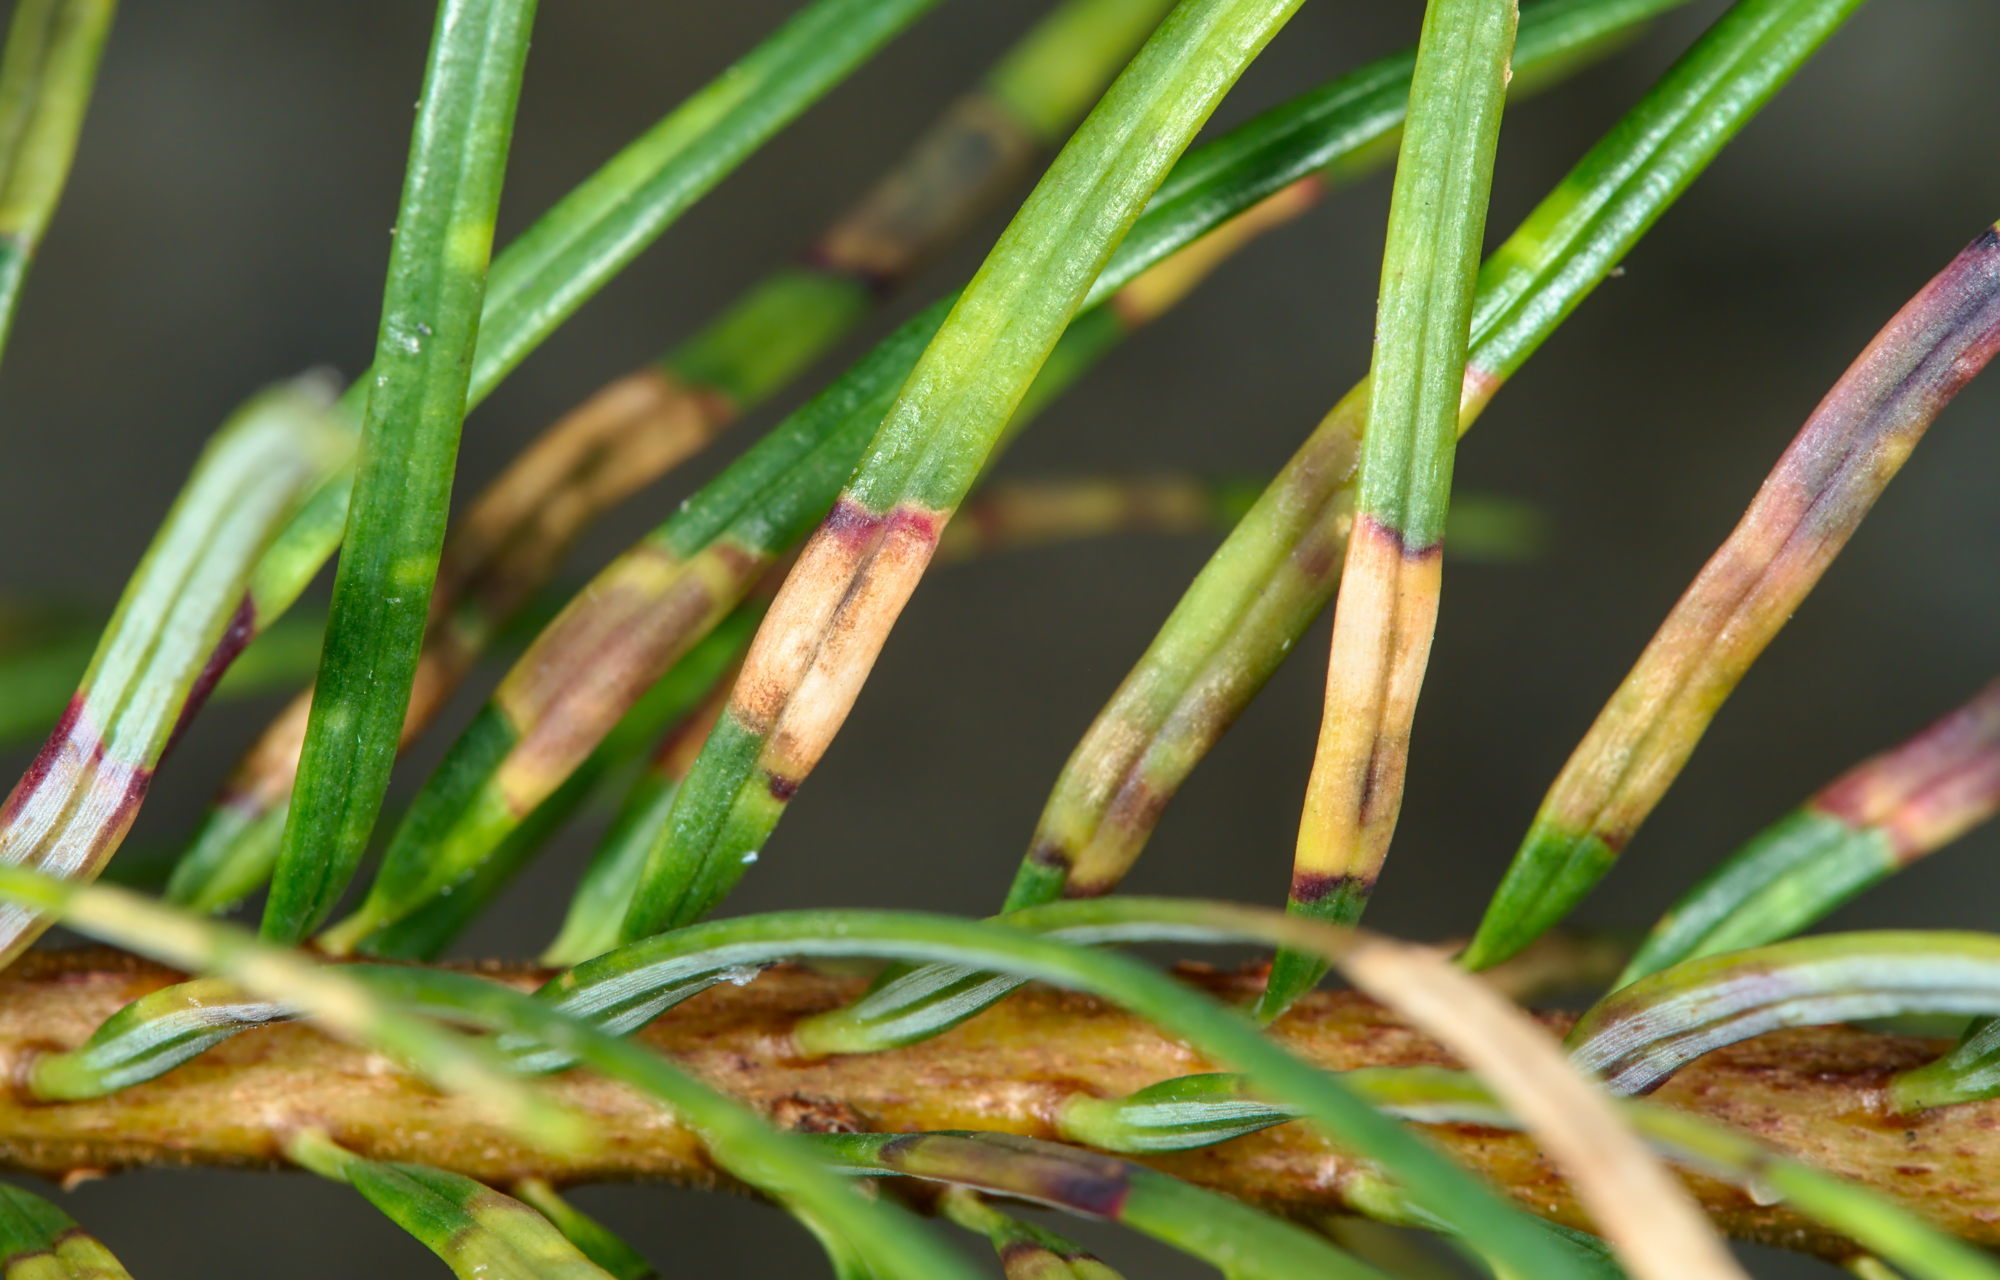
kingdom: Animalia
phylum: Arthropoda
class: Insecta
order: Diptera
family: Cecidomyiidae
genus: Contarinia
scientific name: Contarinia pseudotsugae
